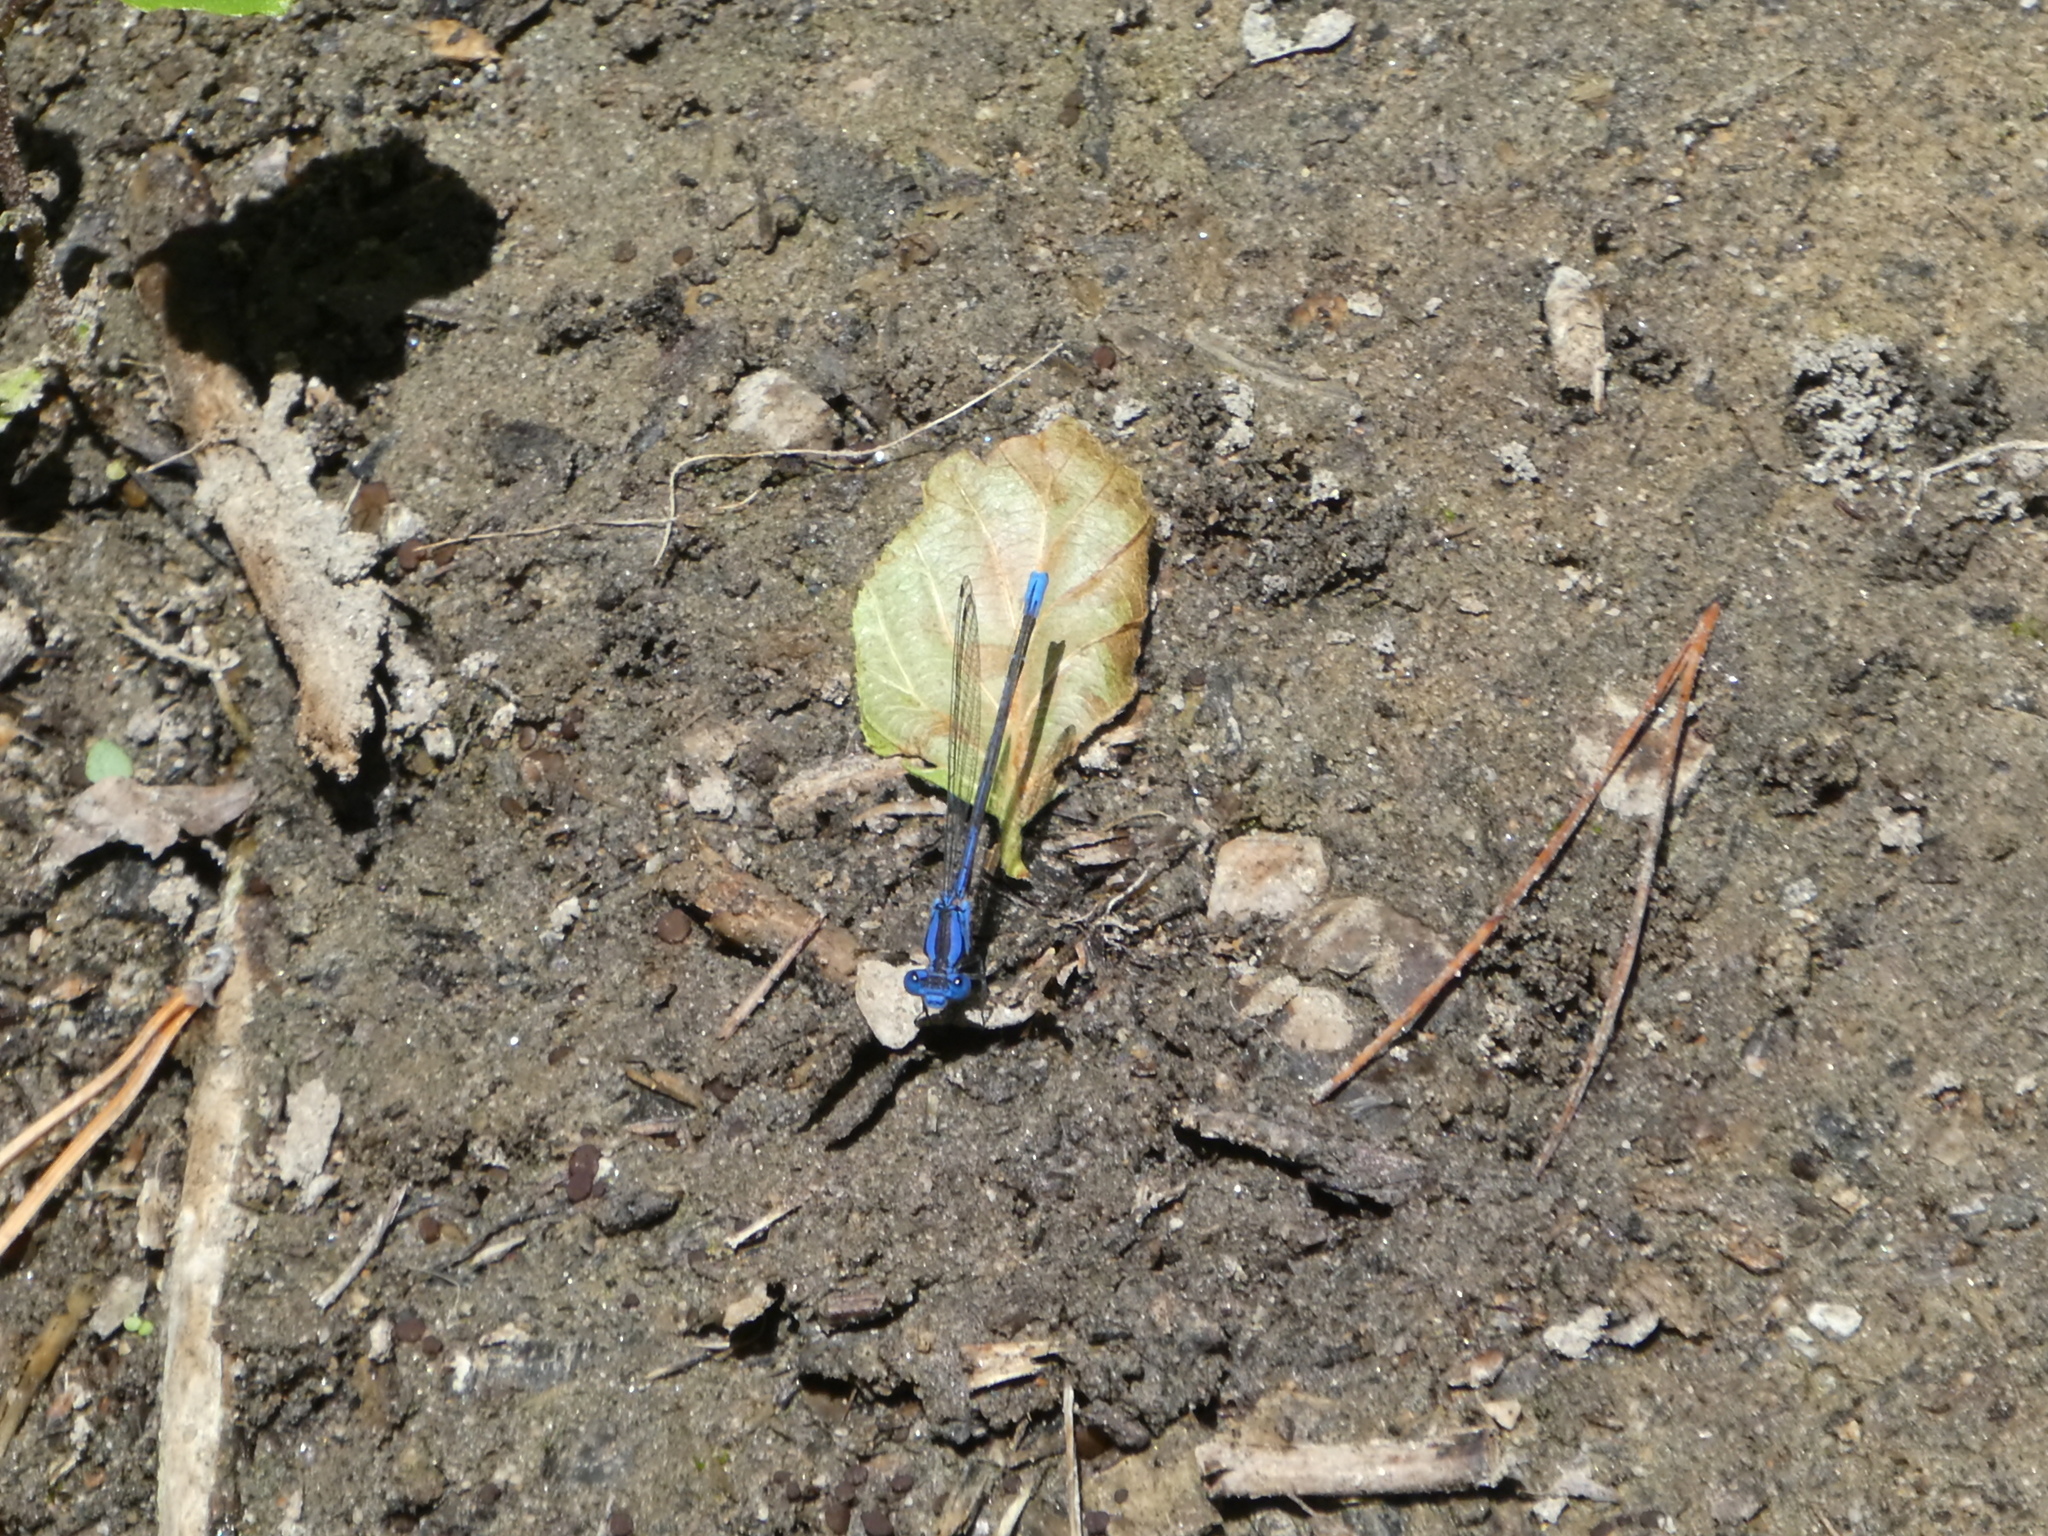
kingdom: Animalia
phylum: Arthropoda
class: Insecta
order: Odonata
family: Coenagrionidae
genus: Argia
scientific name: Argia vivida
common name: Vivid dancer
